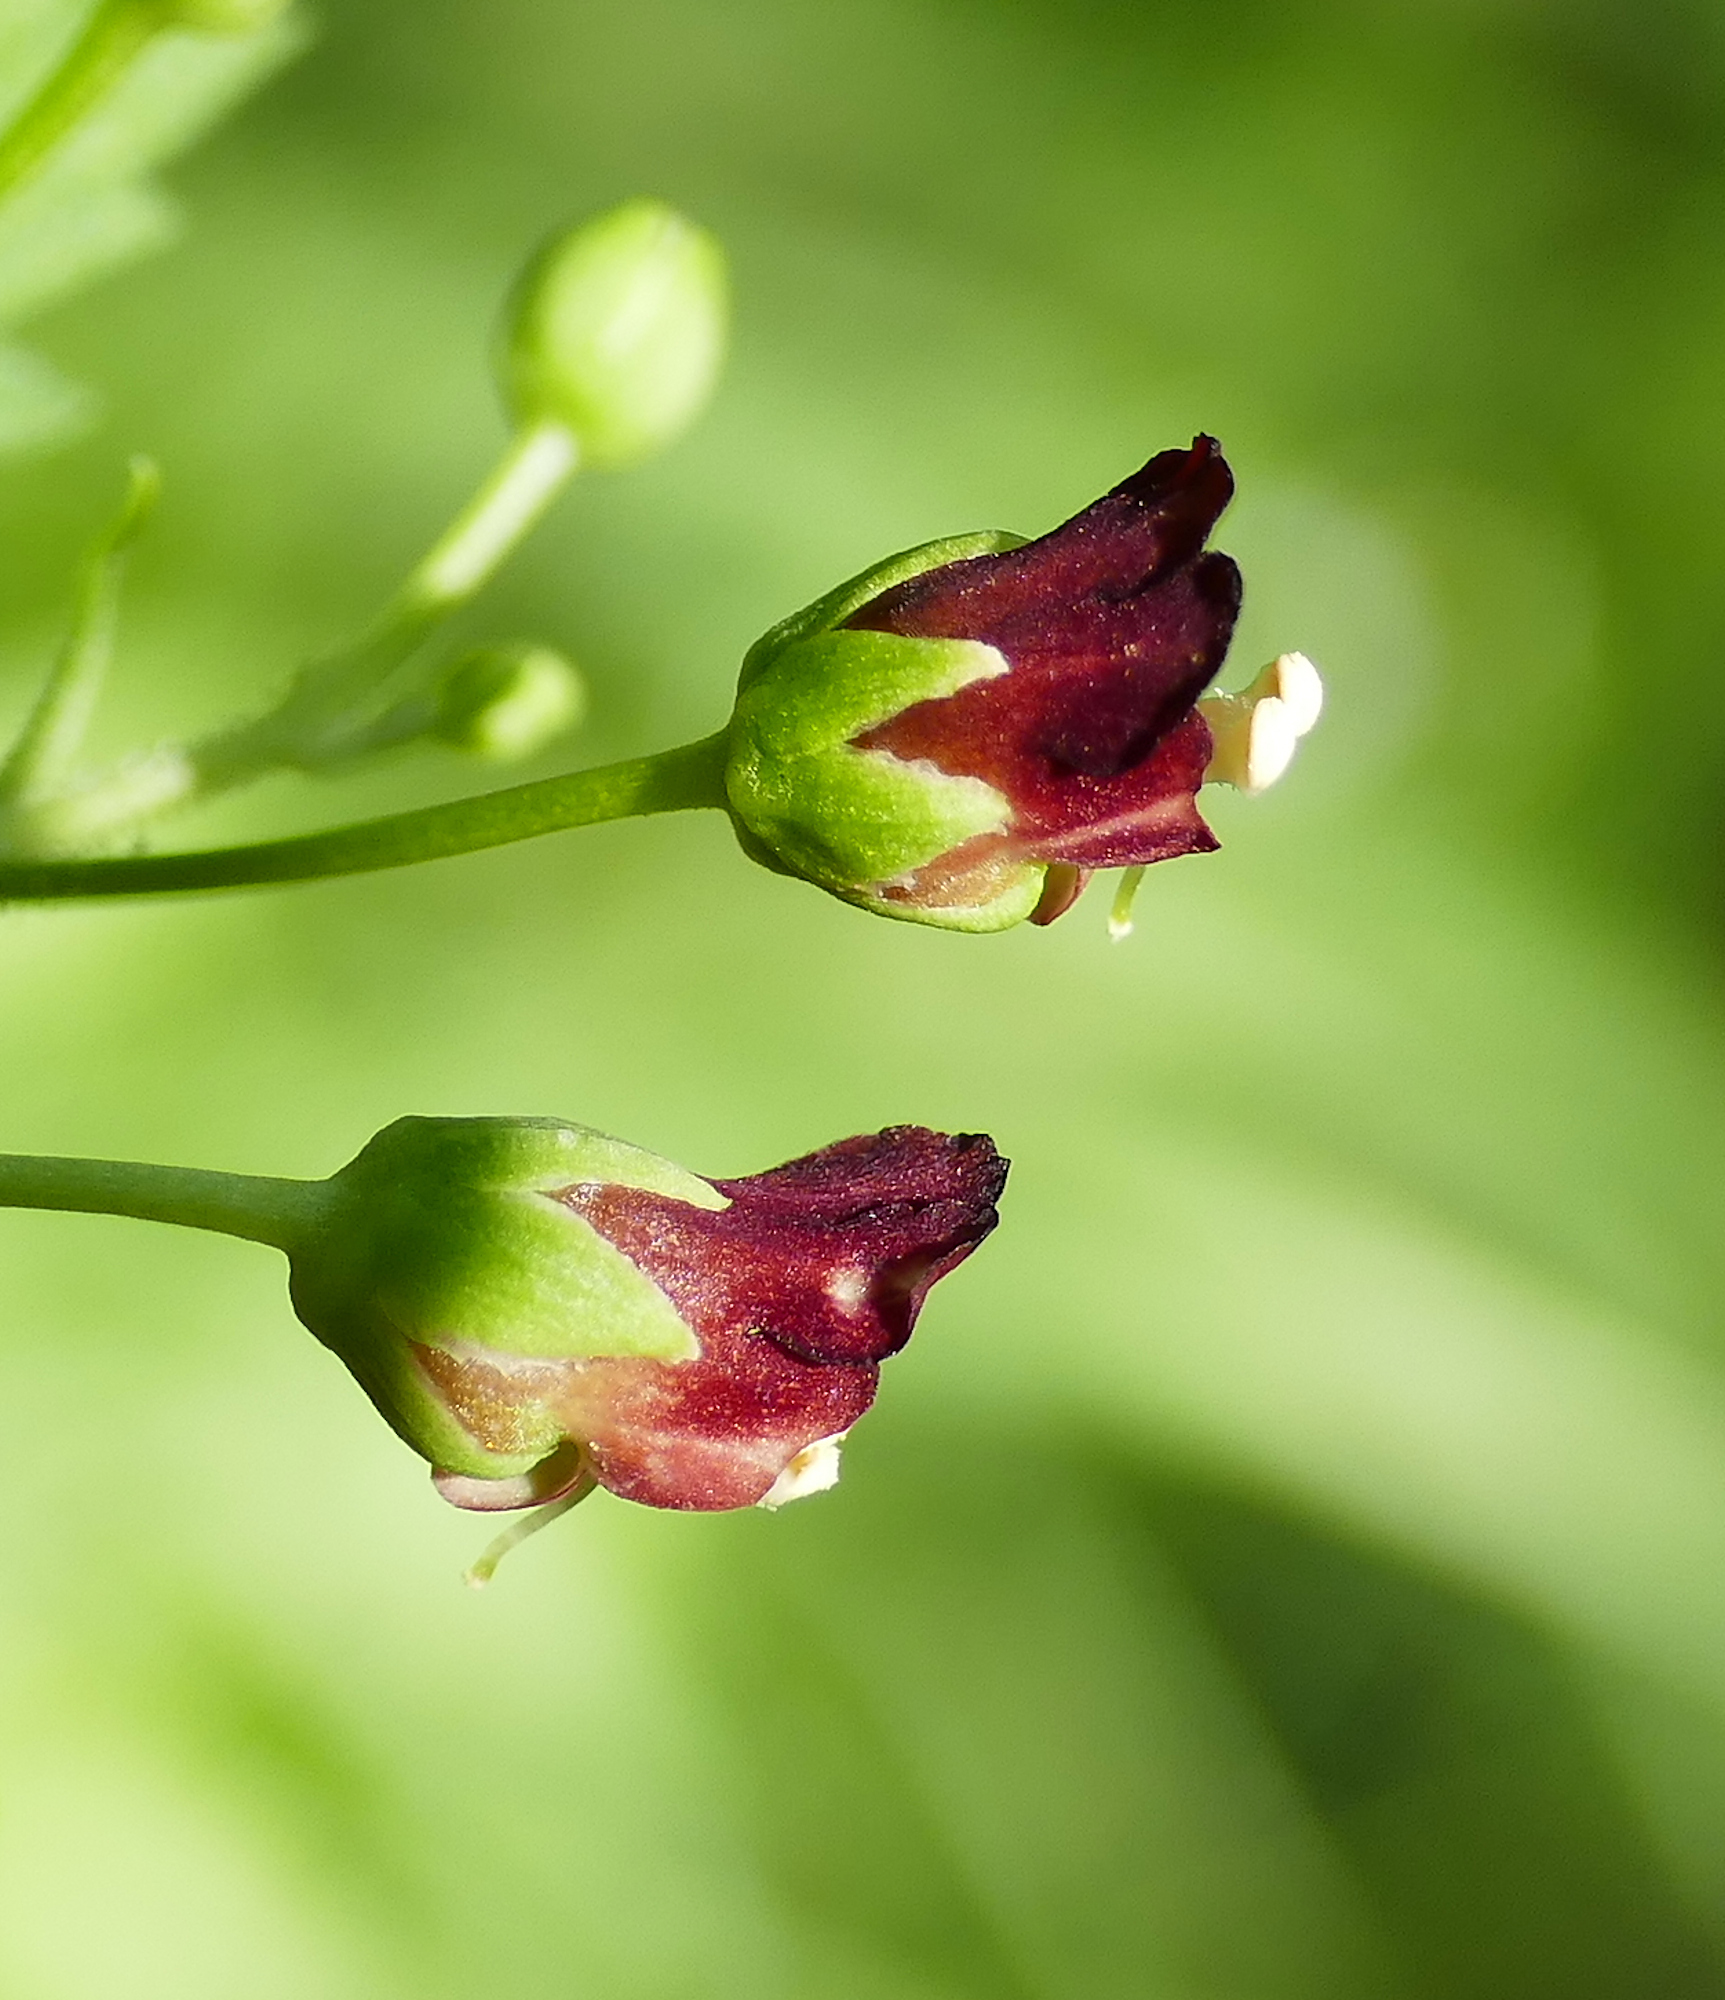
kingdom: Plantae
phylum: Tracheophyta
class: Magnoliopsida
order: Lamiales
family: Scrophulariaceae
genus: Scrophularia
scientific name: Scrophularia parviflora
